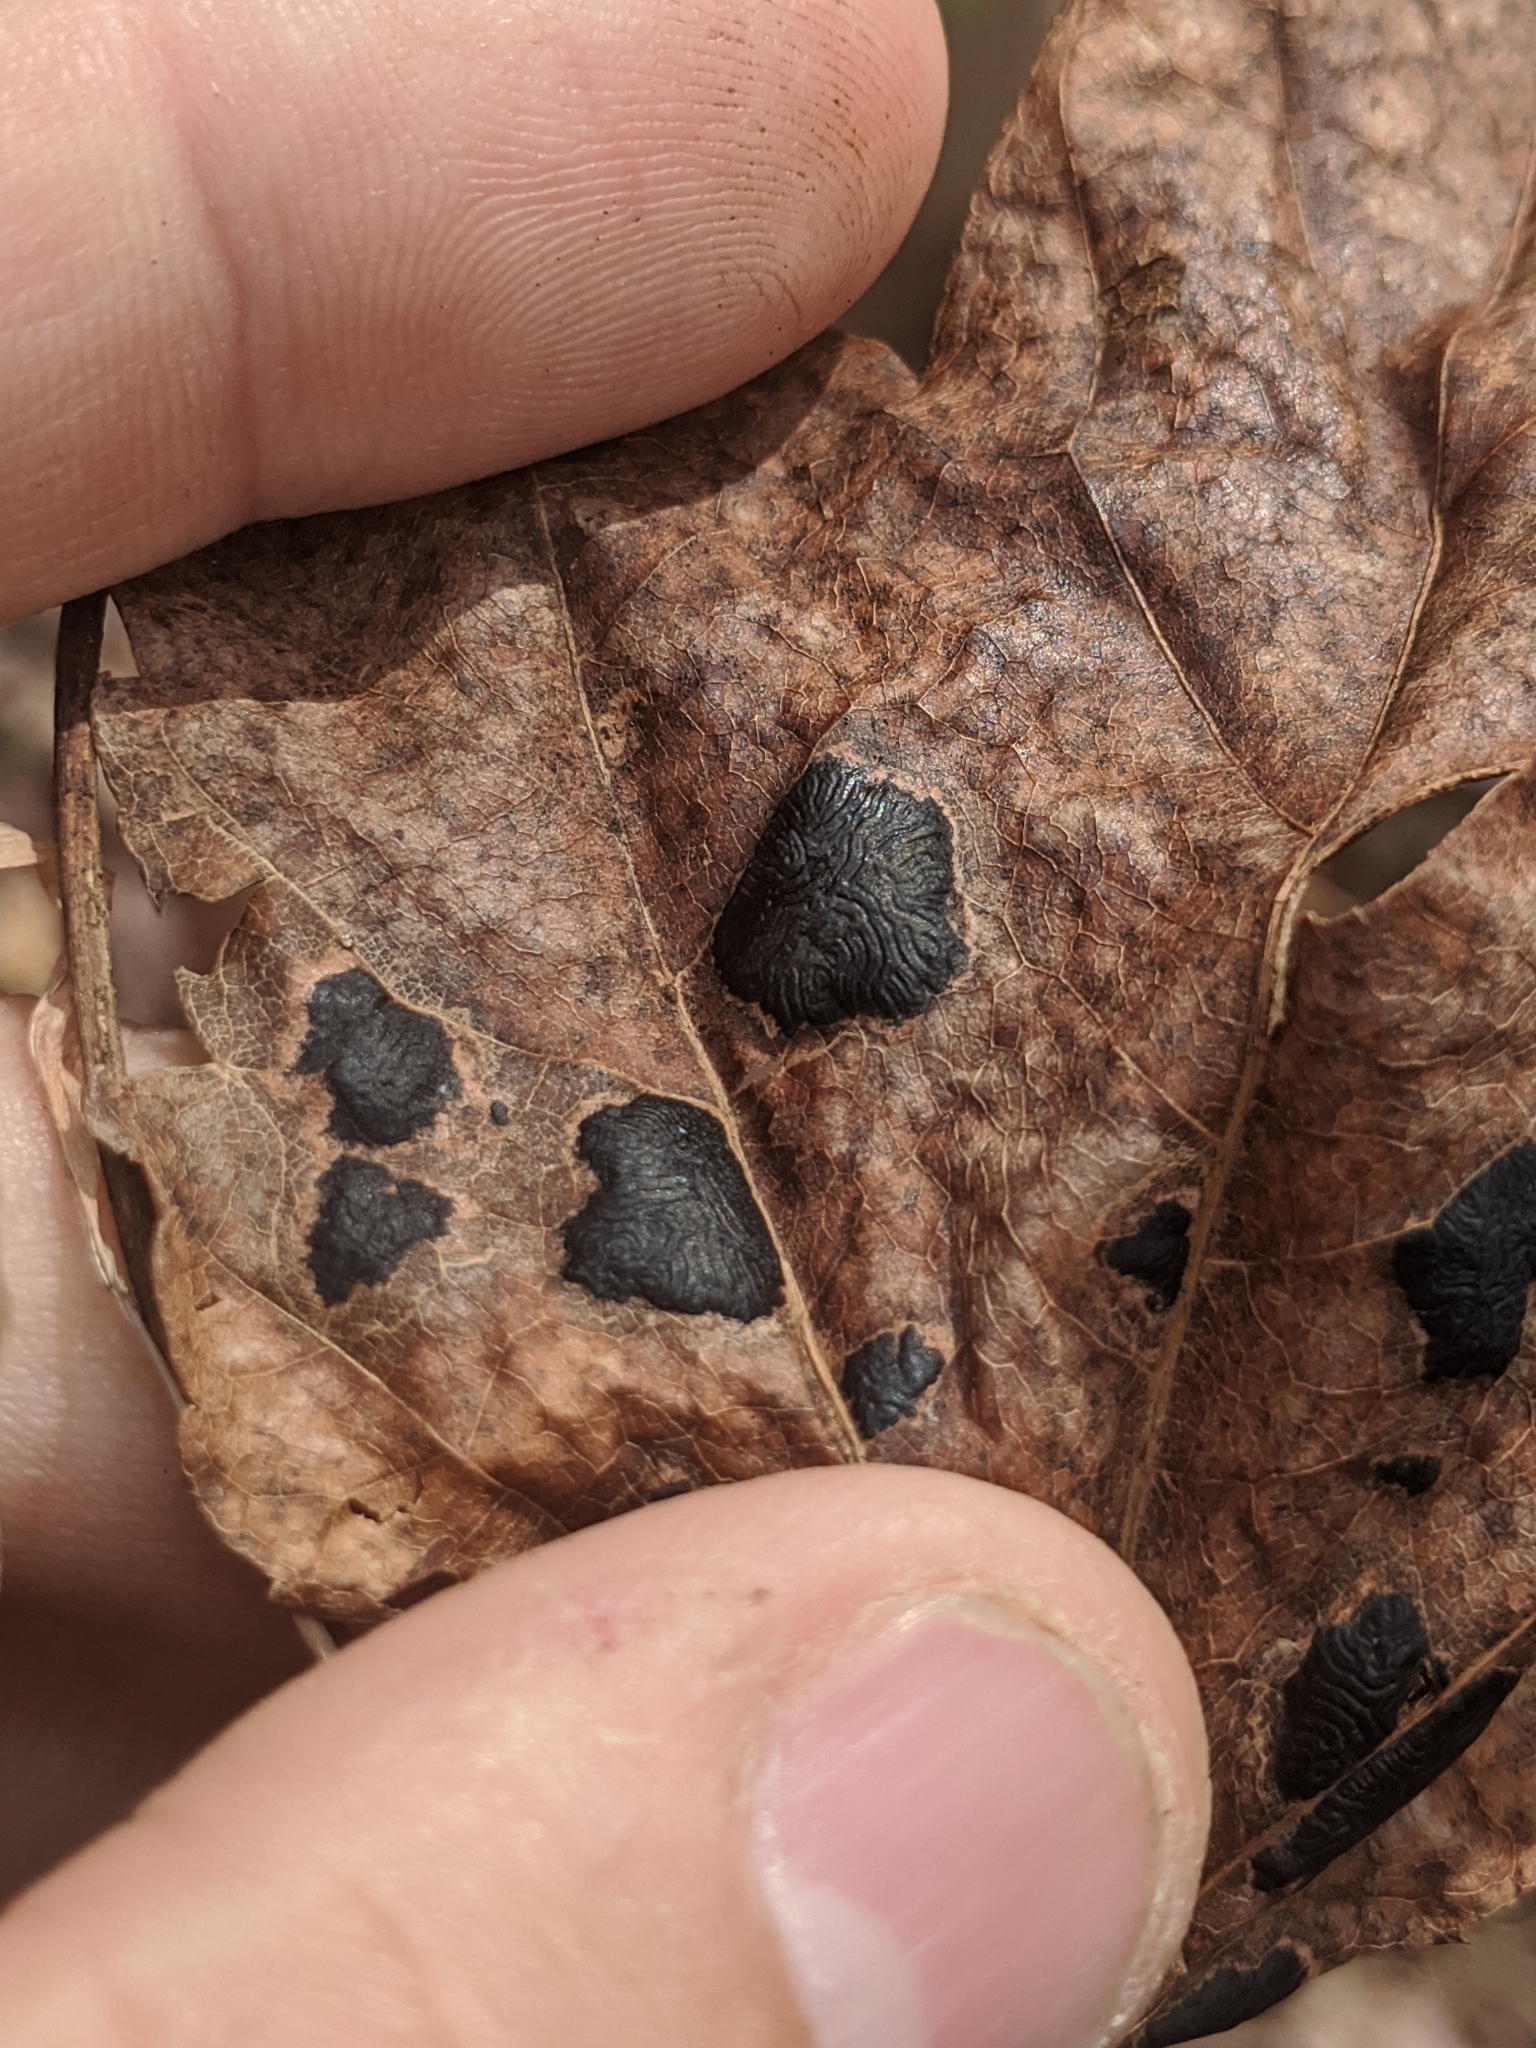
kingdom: Fungi
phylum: Ascomycota
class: Leotiomycetes
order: Rhytismatales
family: Rhytismataceae
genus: Rhytisma
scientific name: Rhytisma americanum
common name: American tar spot
